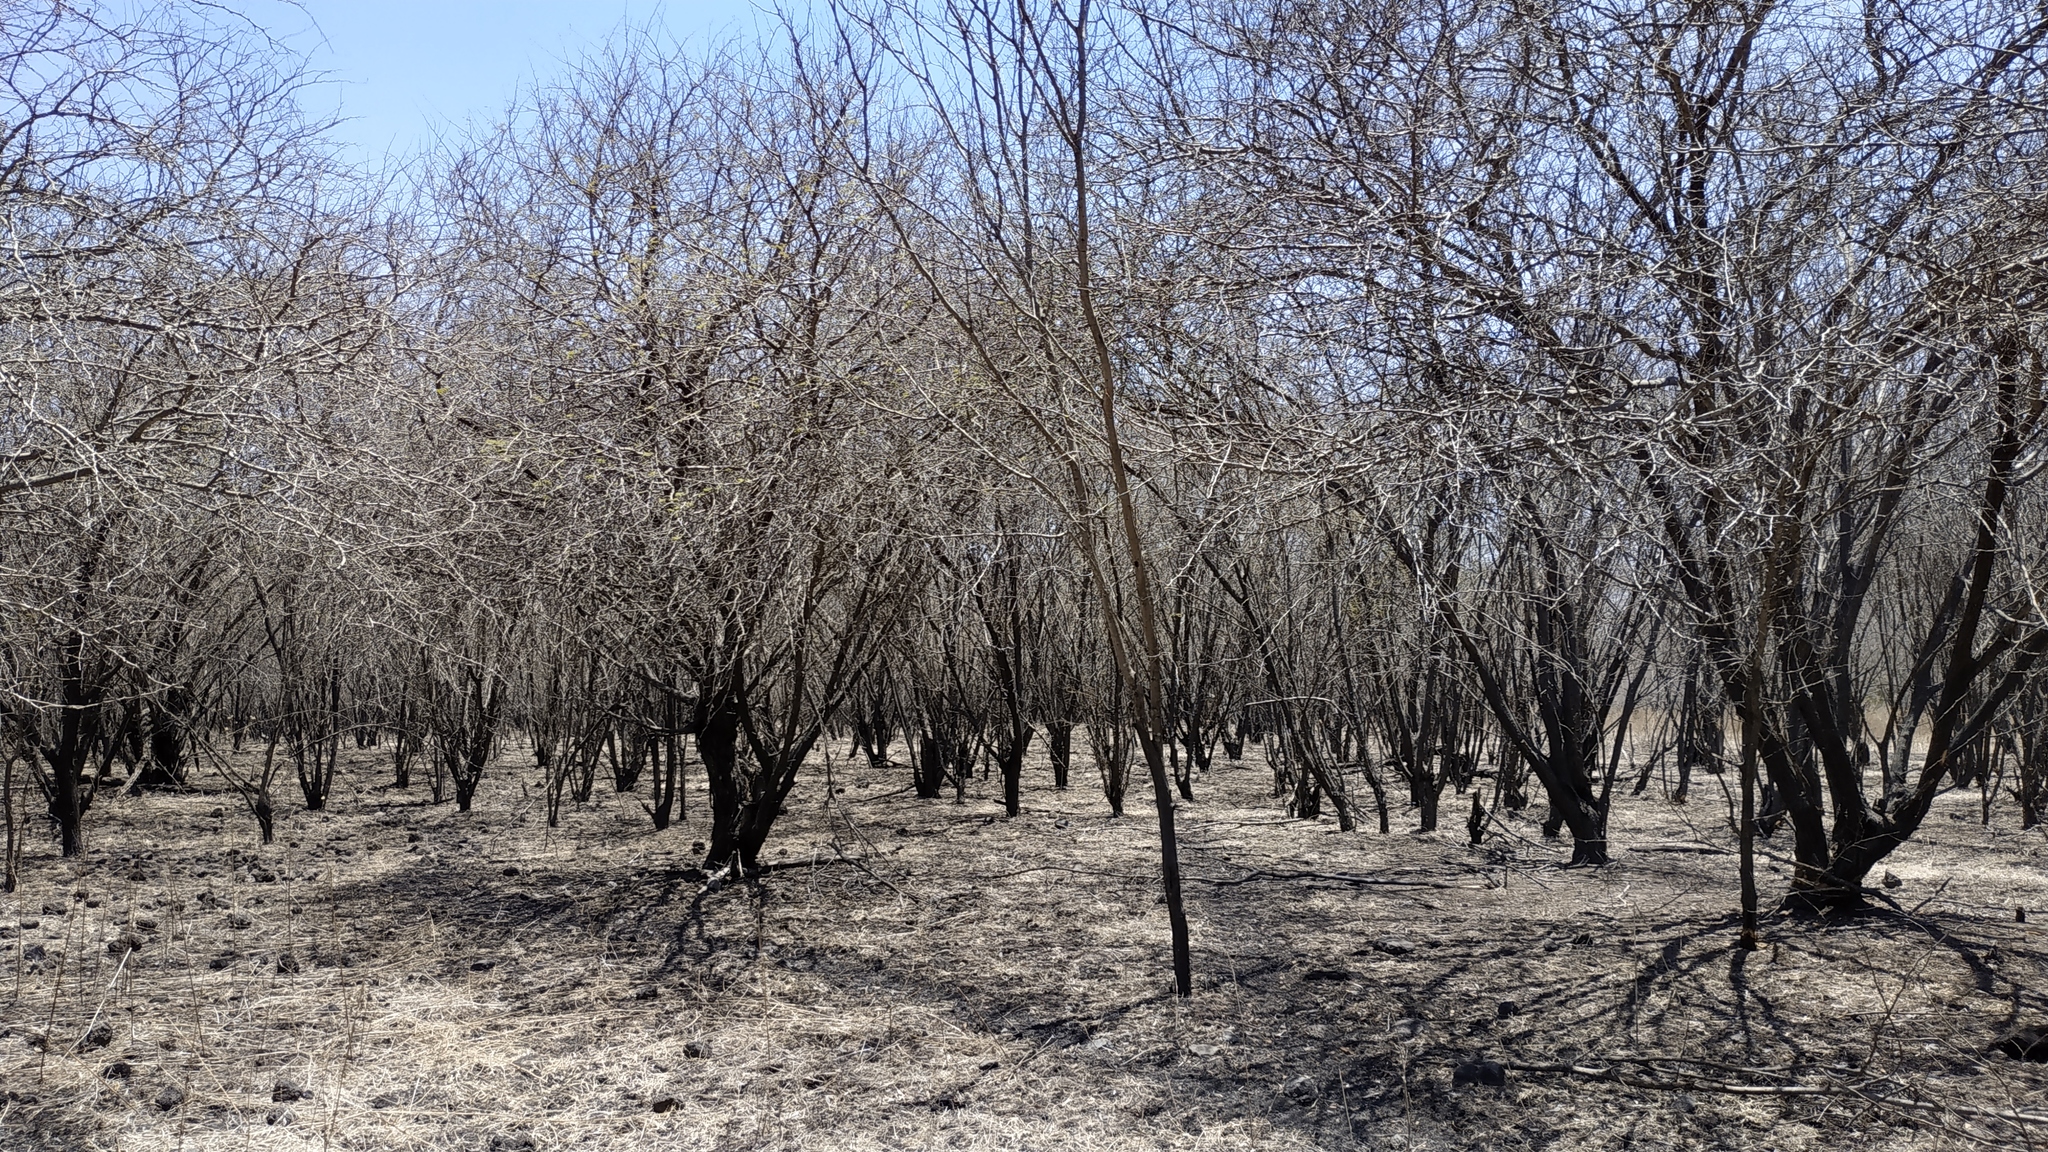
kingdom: Plantae
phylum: Tracheophyta
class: Magnoliopsida
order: Fabales
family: Fabaceae
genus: Vachellia
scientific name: Vachellia nilotica
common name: Arabic gumtree
